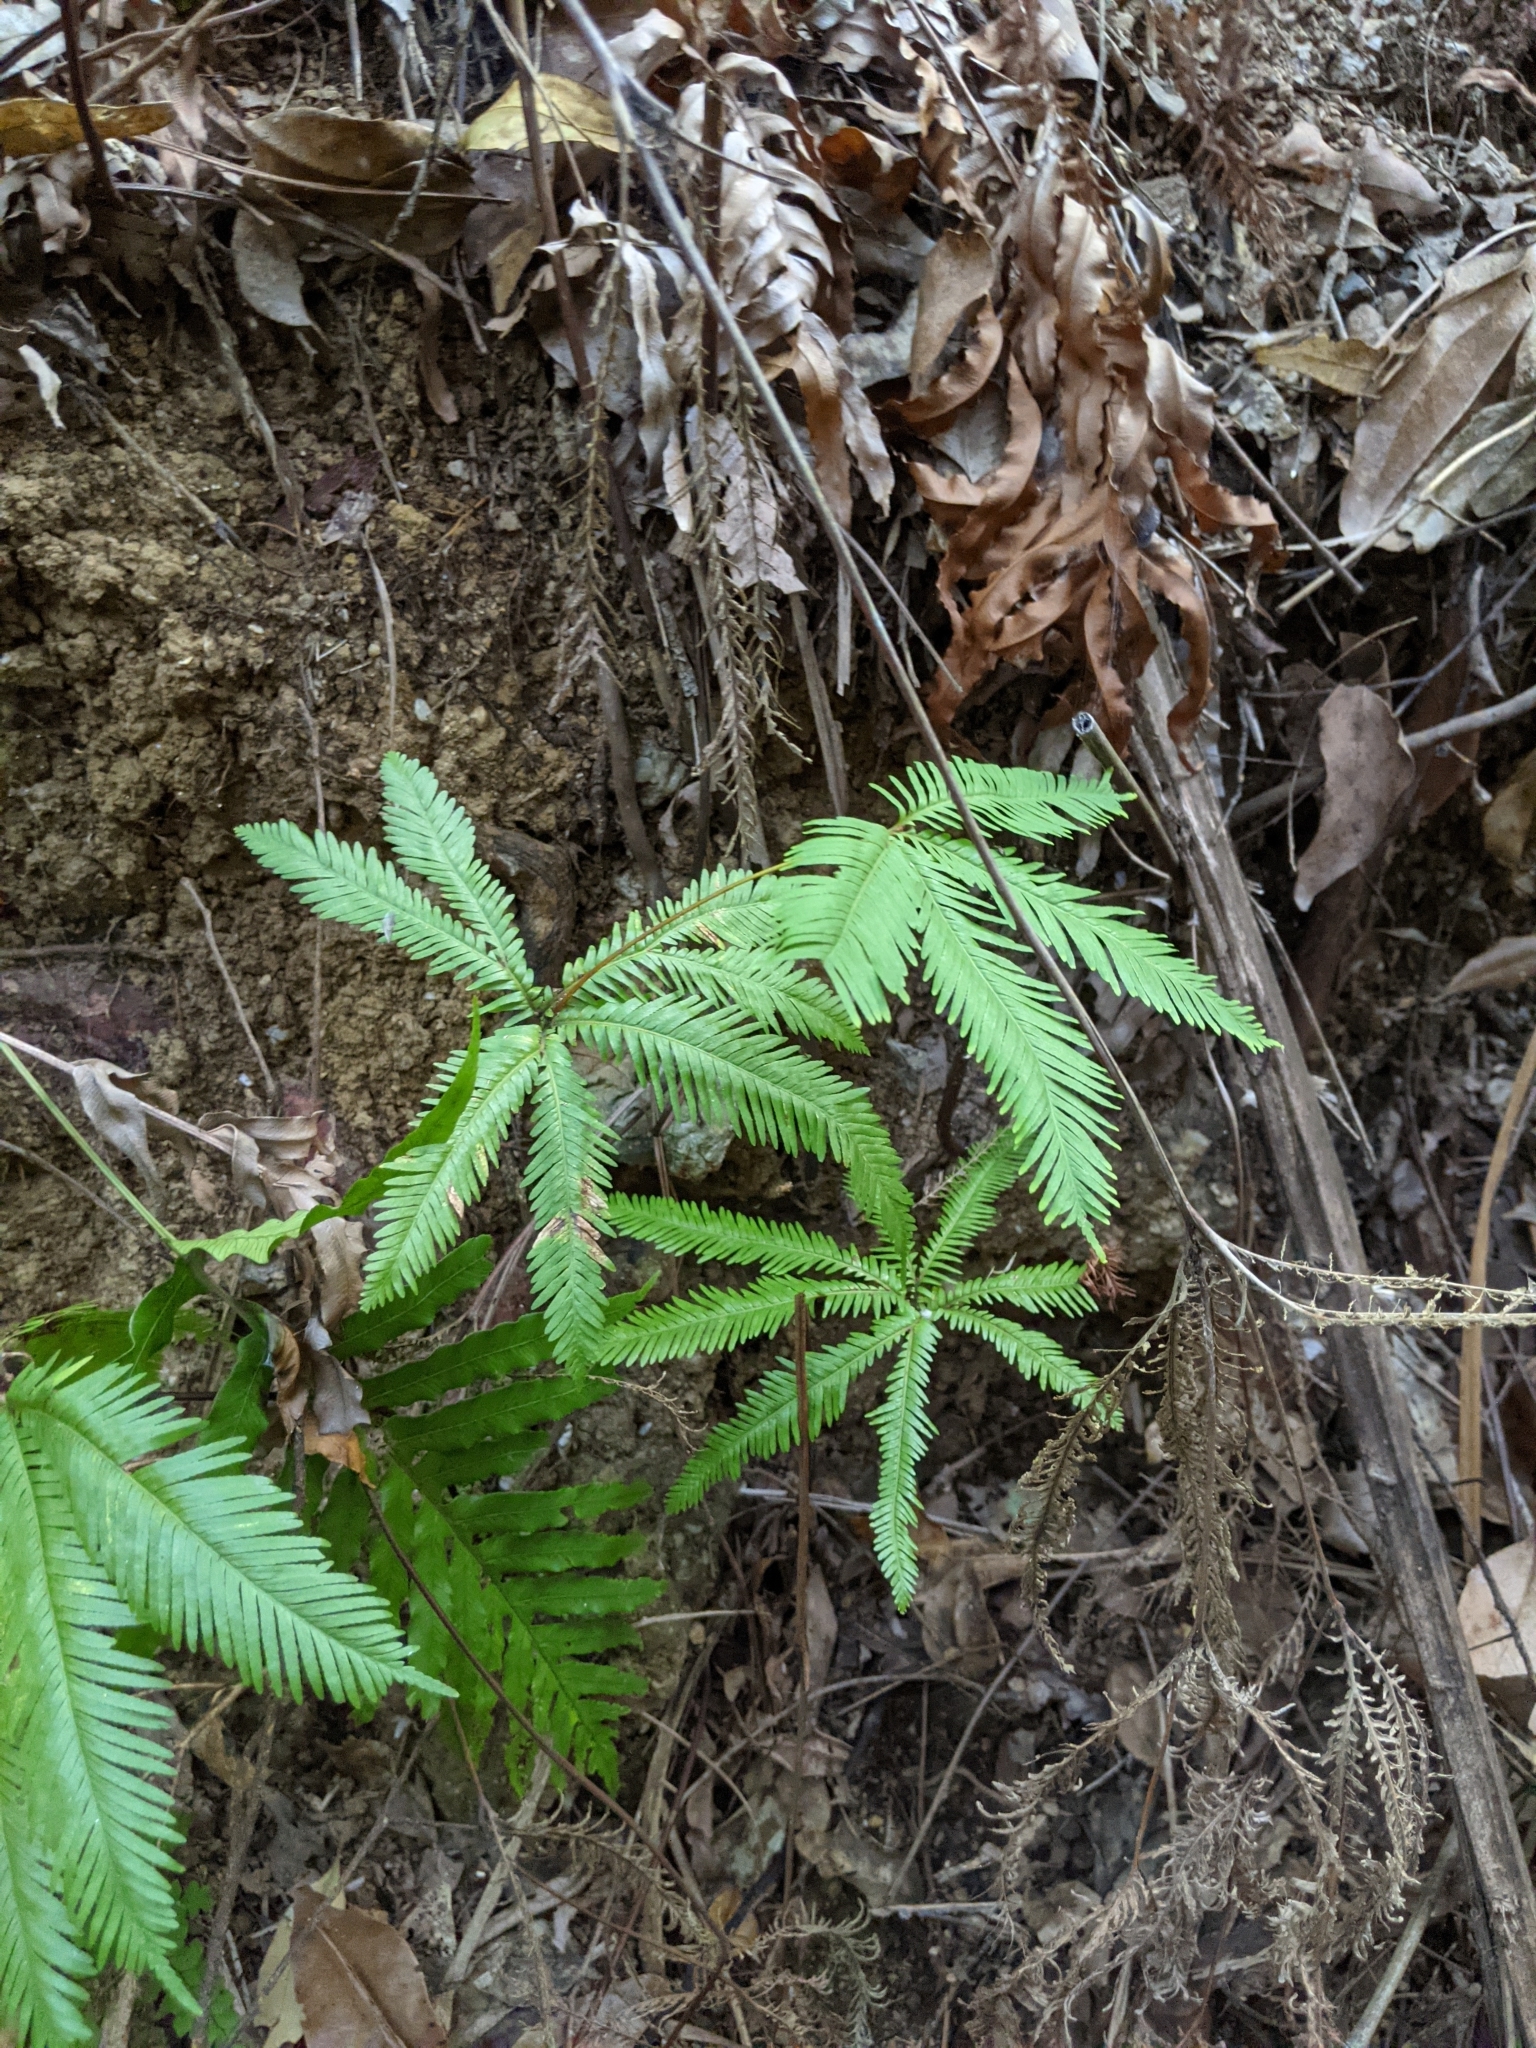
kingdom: Plantae
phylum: Tracheophyta
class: Polypodiopsida
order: Gleicheniales
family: Gleicheniaceae
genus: Sticherus
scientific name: Sticherus flabellatus
